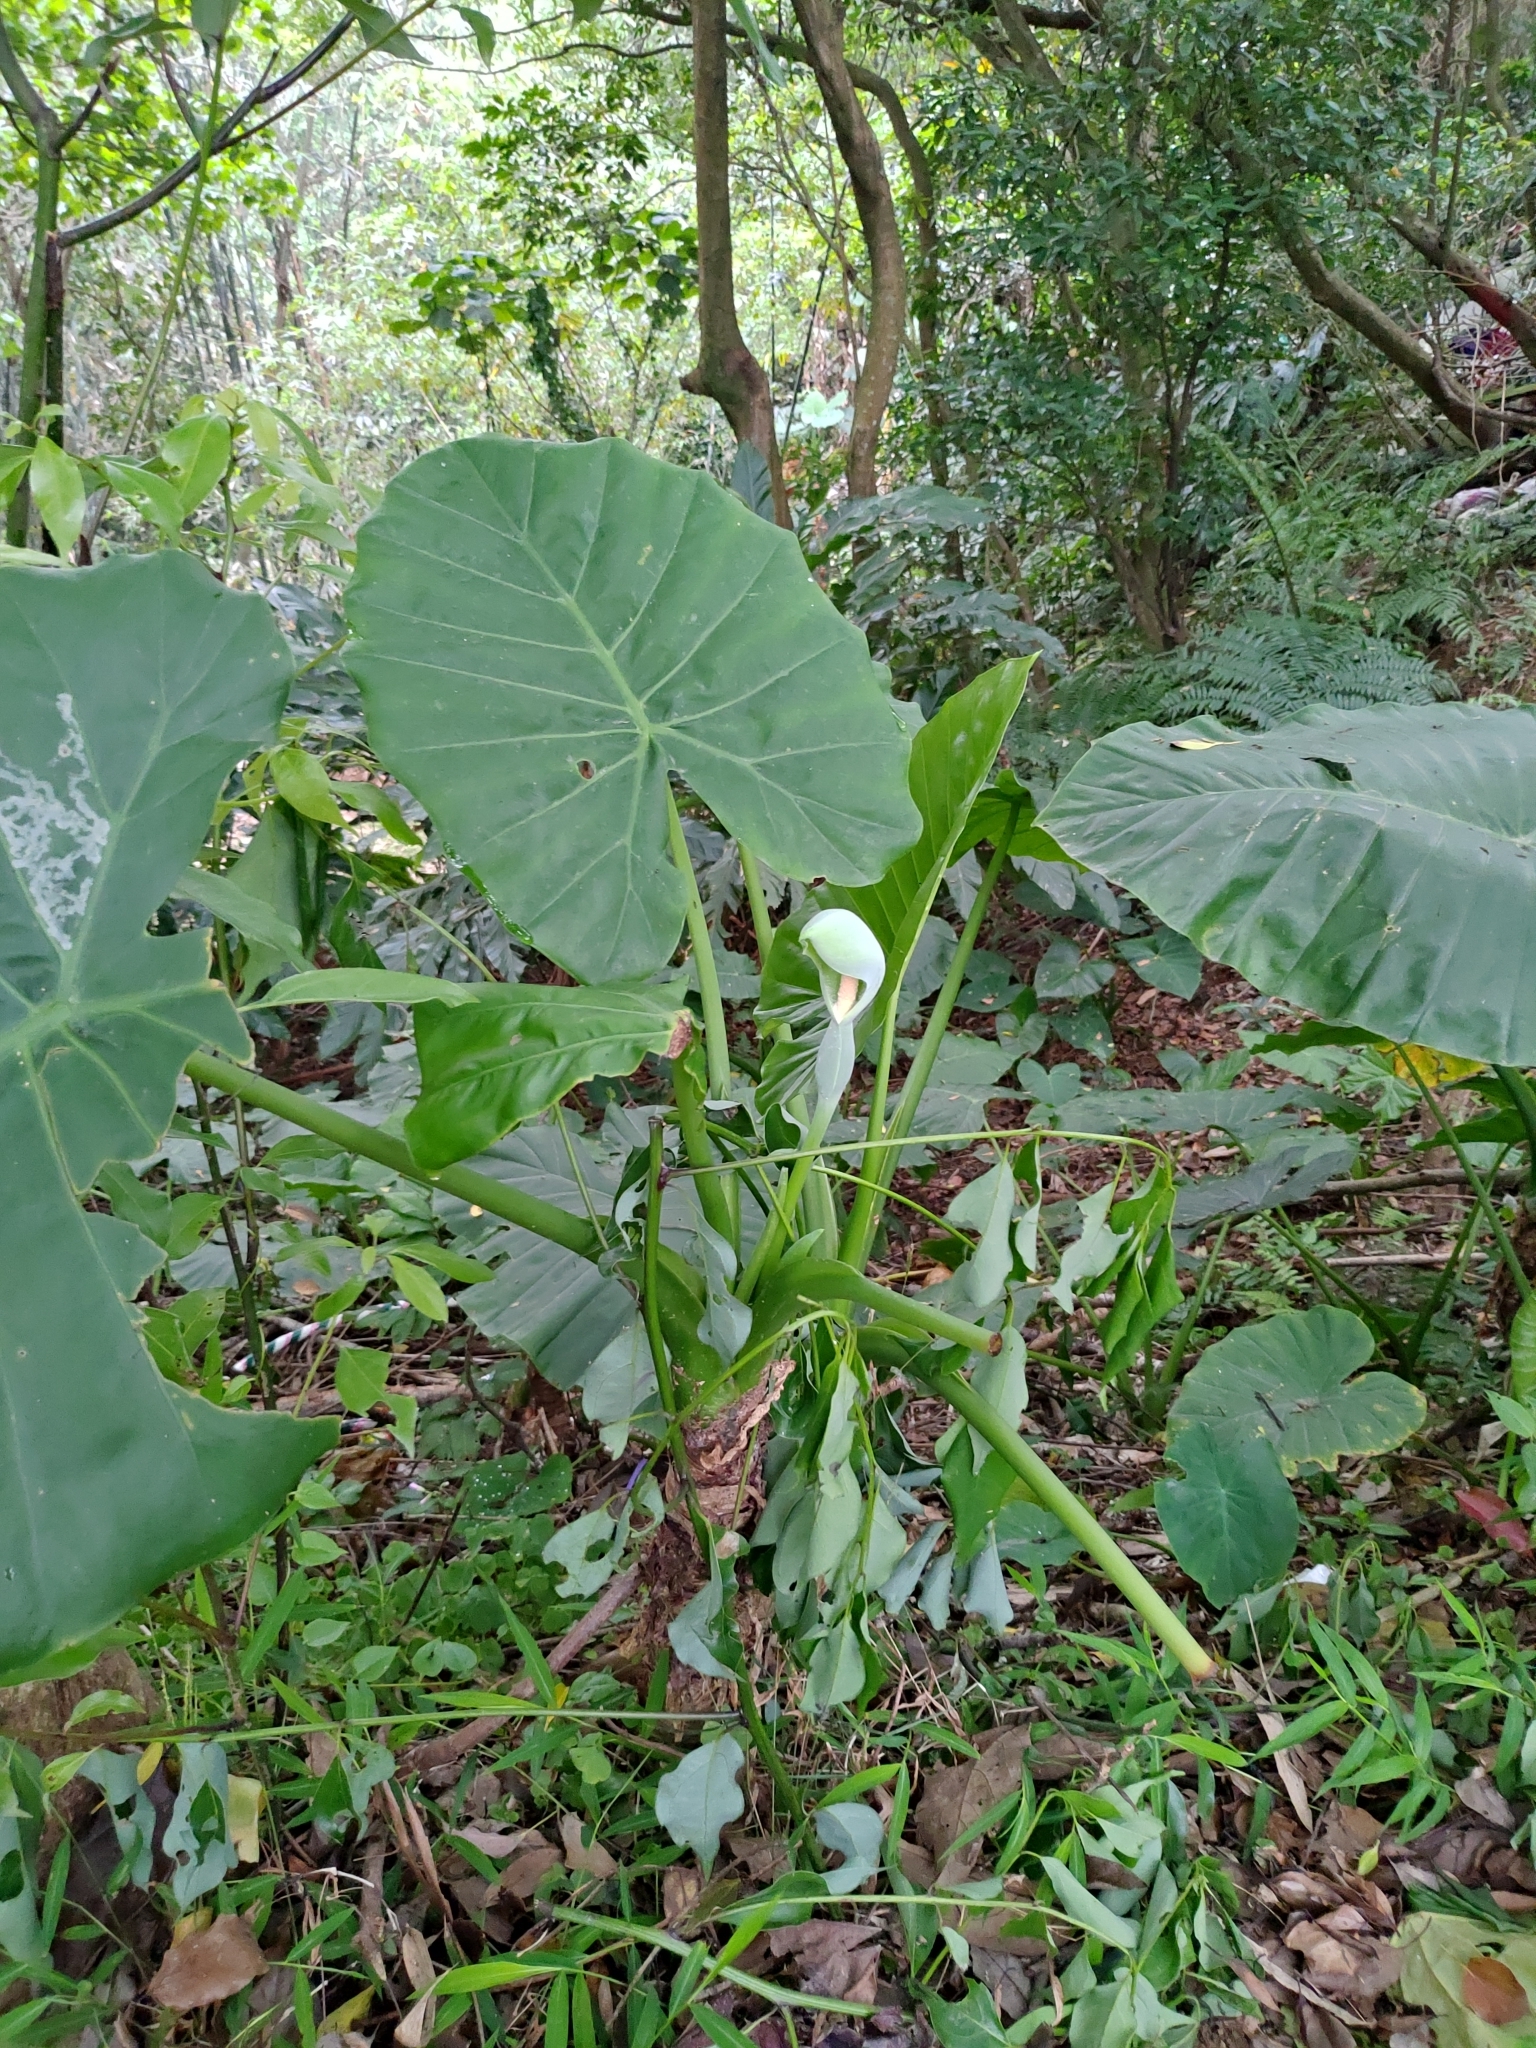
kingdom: Plantae
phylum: Tracheophyta
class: Liliopsida
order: Alismatales
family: Araceae
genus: Alocasia
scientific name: Alocasia odora
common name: Asian taro
